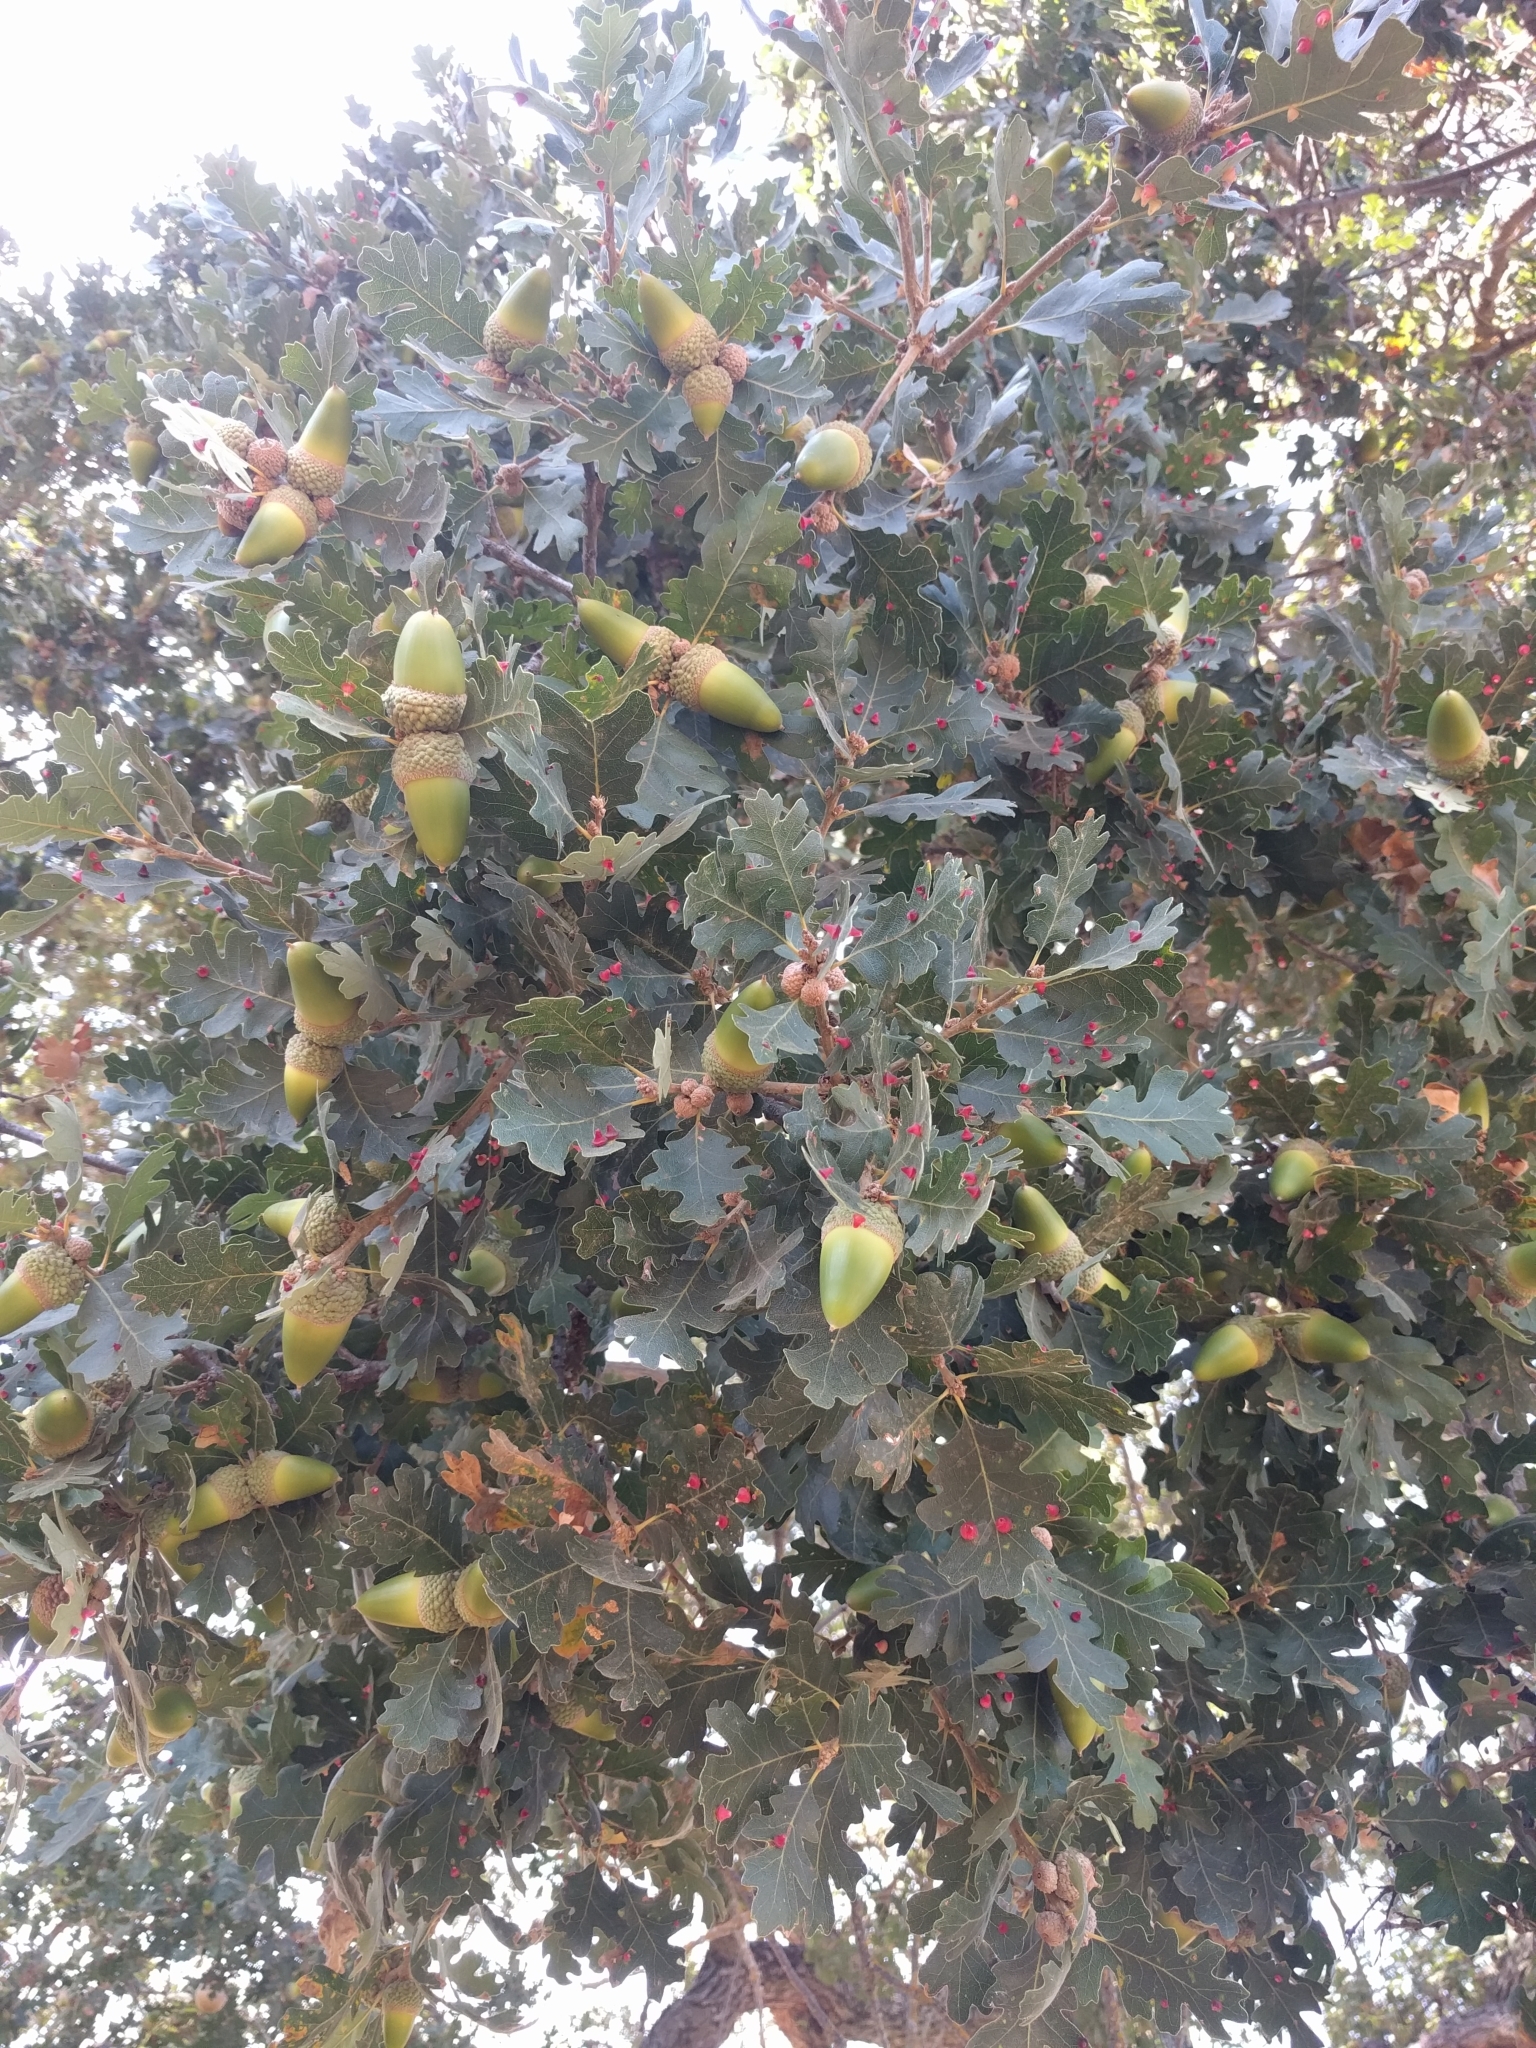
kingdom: Plantae
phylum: Tracheophyta
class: Magnoliopsida
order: Fagales
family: Fagaceae
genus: Quercus
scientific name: Quercus lobata
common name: Valley oak
